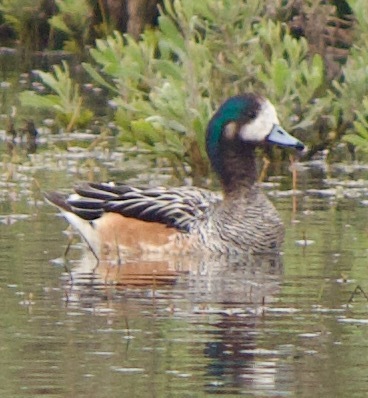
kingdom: Animalia
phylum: Chordata
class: Aves
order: Anseriformes
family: Anatidae
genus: Mareca
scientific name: Mareca sibilatrix
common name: Chiloe wigeon
